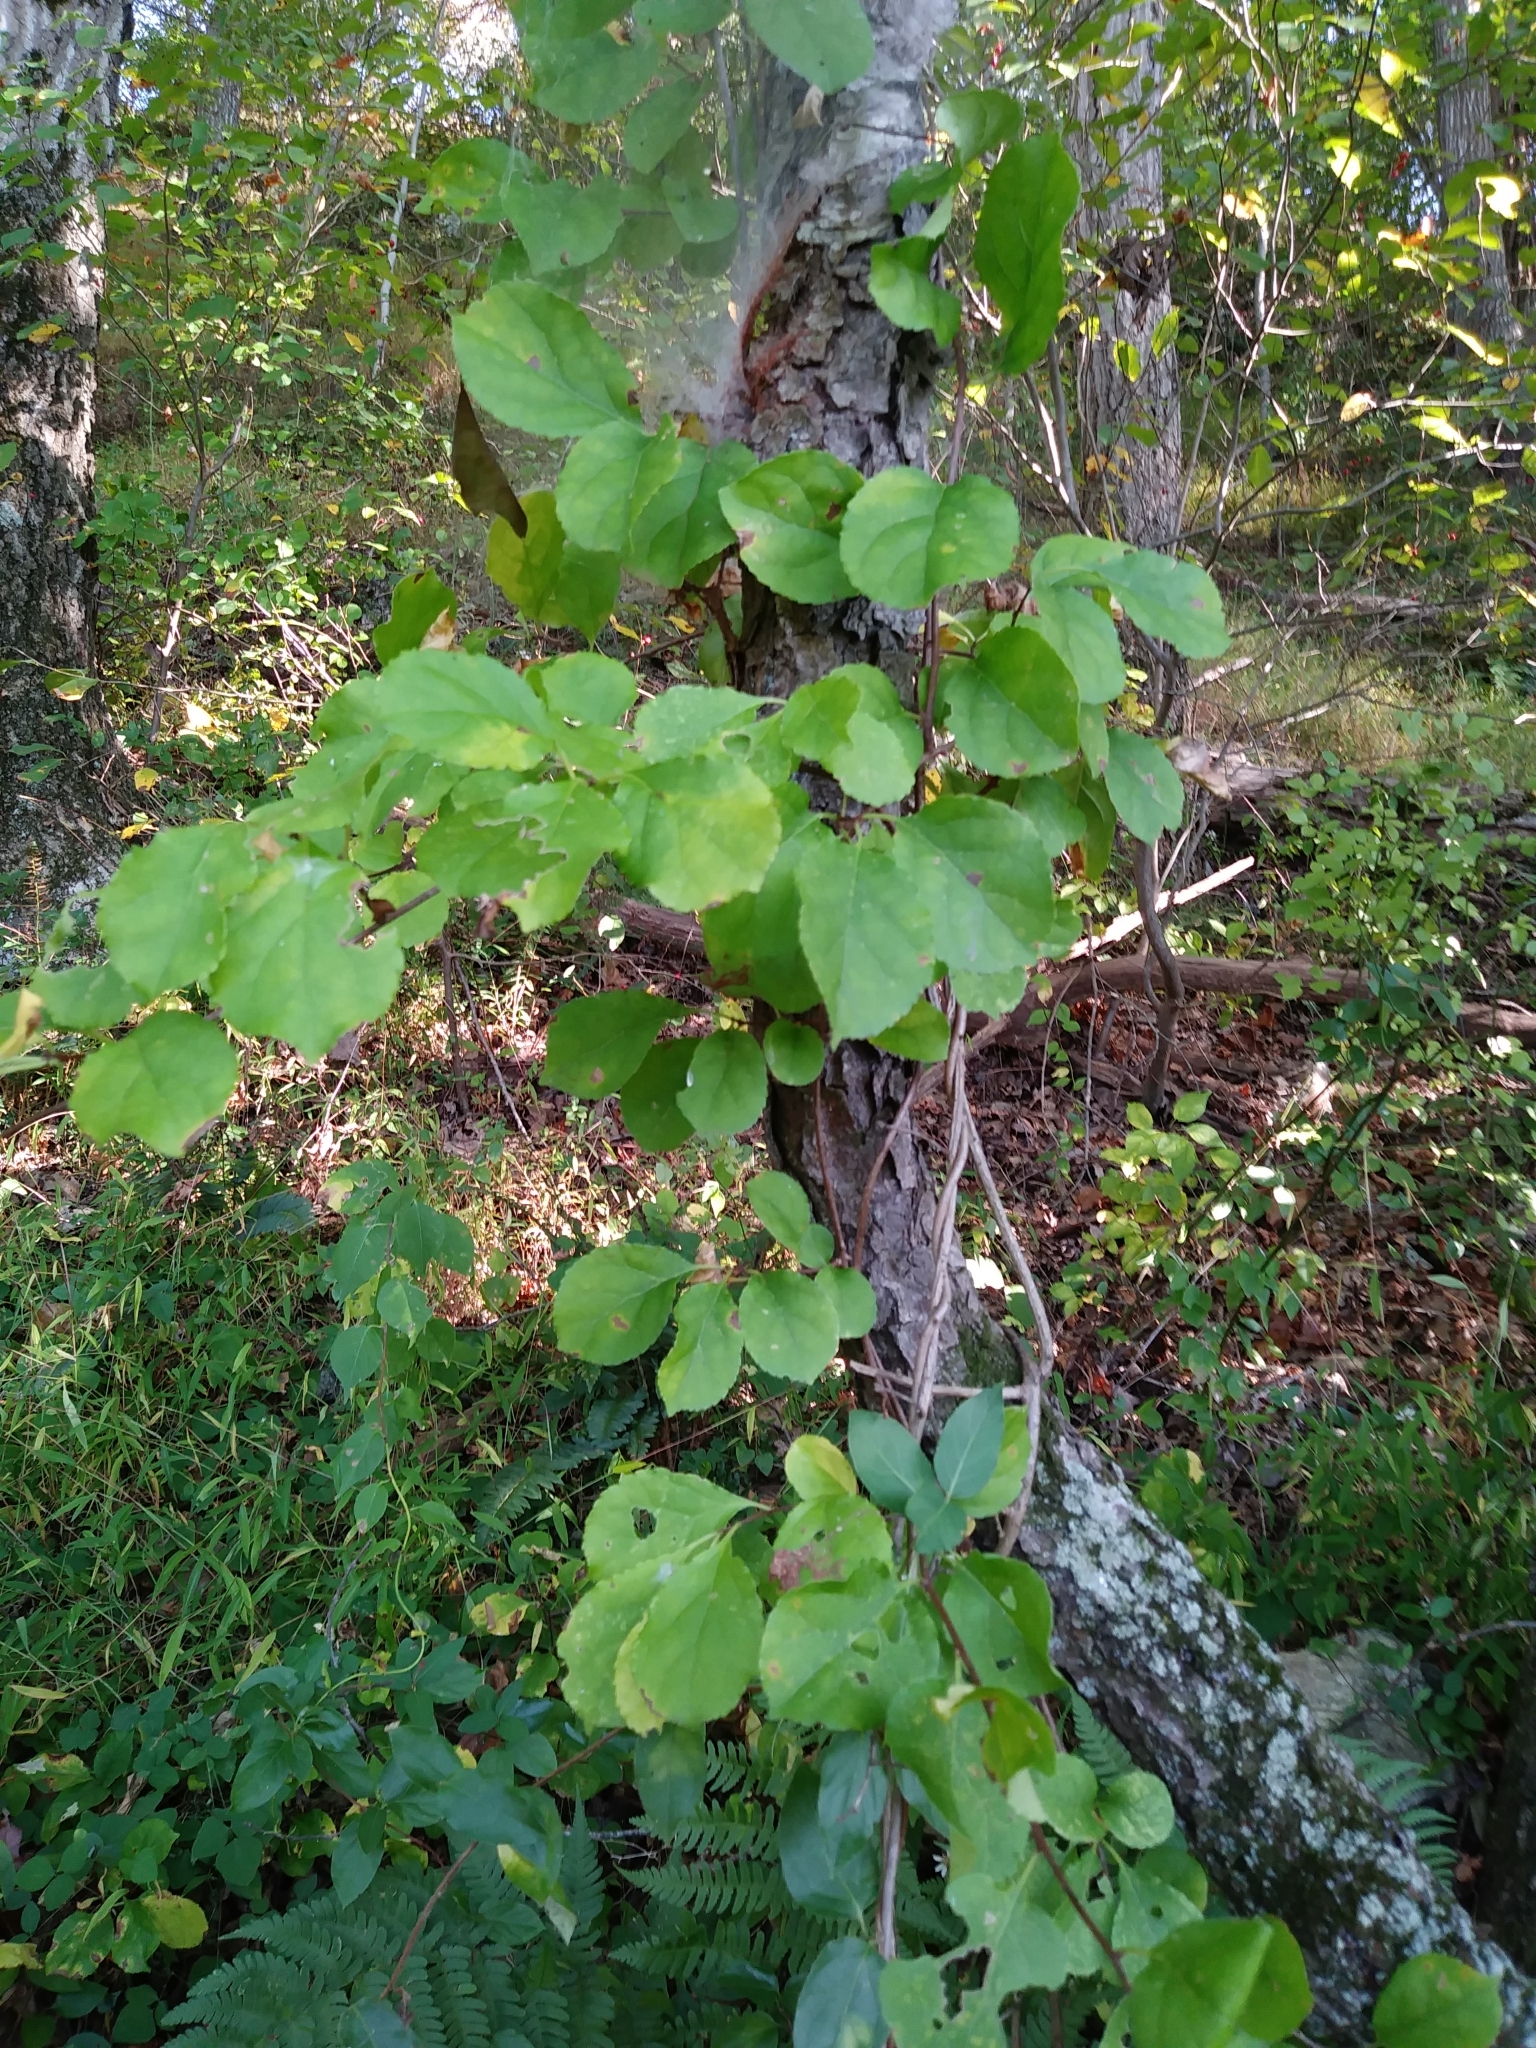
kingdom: Plantae
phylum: Tracheophyta
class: Magnoliopsida
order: Celastrales
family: Celastraceae
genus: Celastrus
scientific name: Celastrus orbiculatus
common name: Oriental bittersweet
